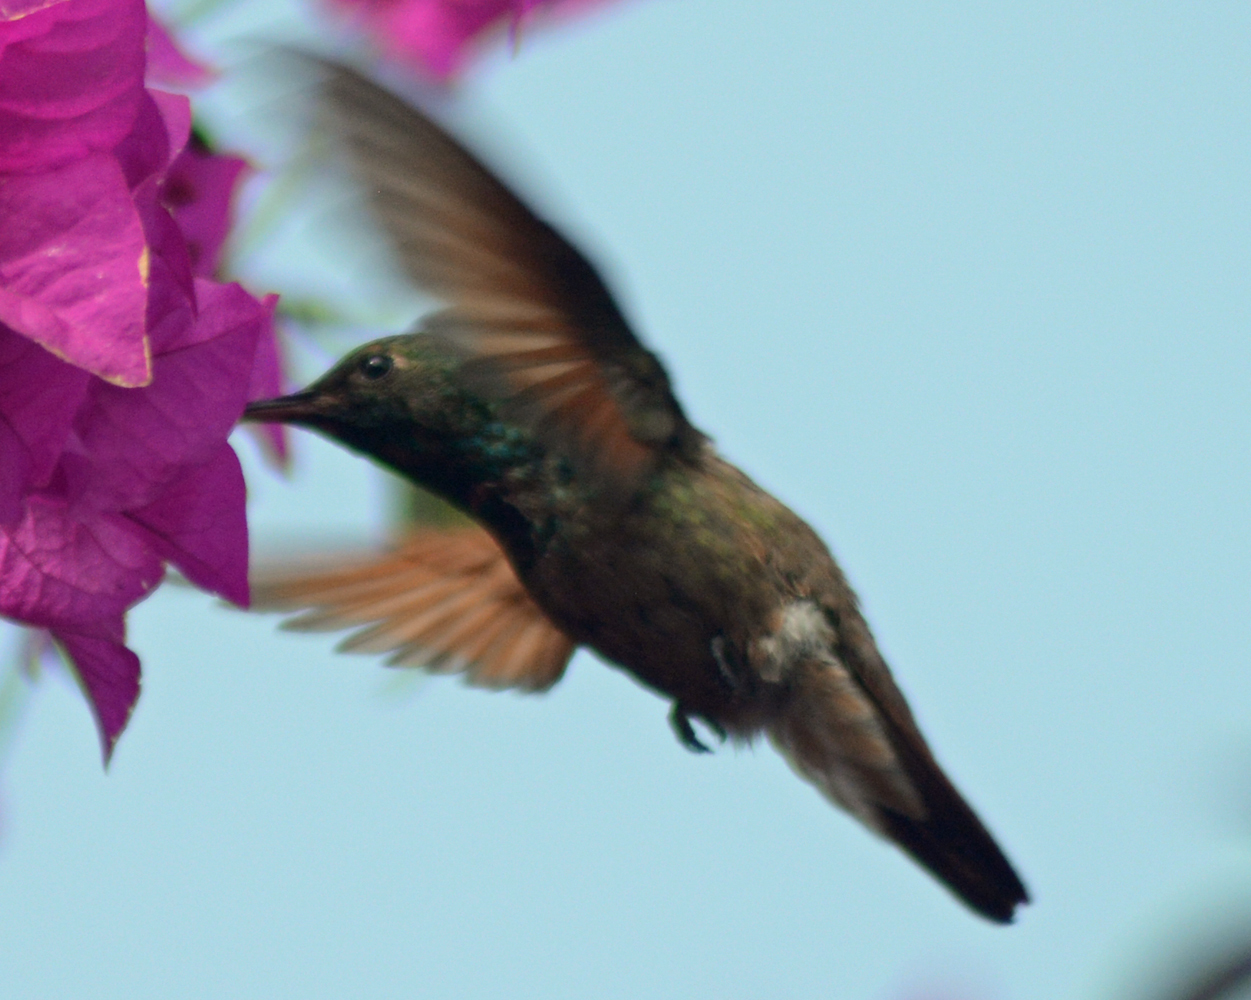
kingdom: Animalia
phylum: Chordata
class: Aves
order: Apodiformes
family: Trochilidae
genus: Saucerottia
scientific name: Saucerottia beryllina
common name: Berylline hummingbird
